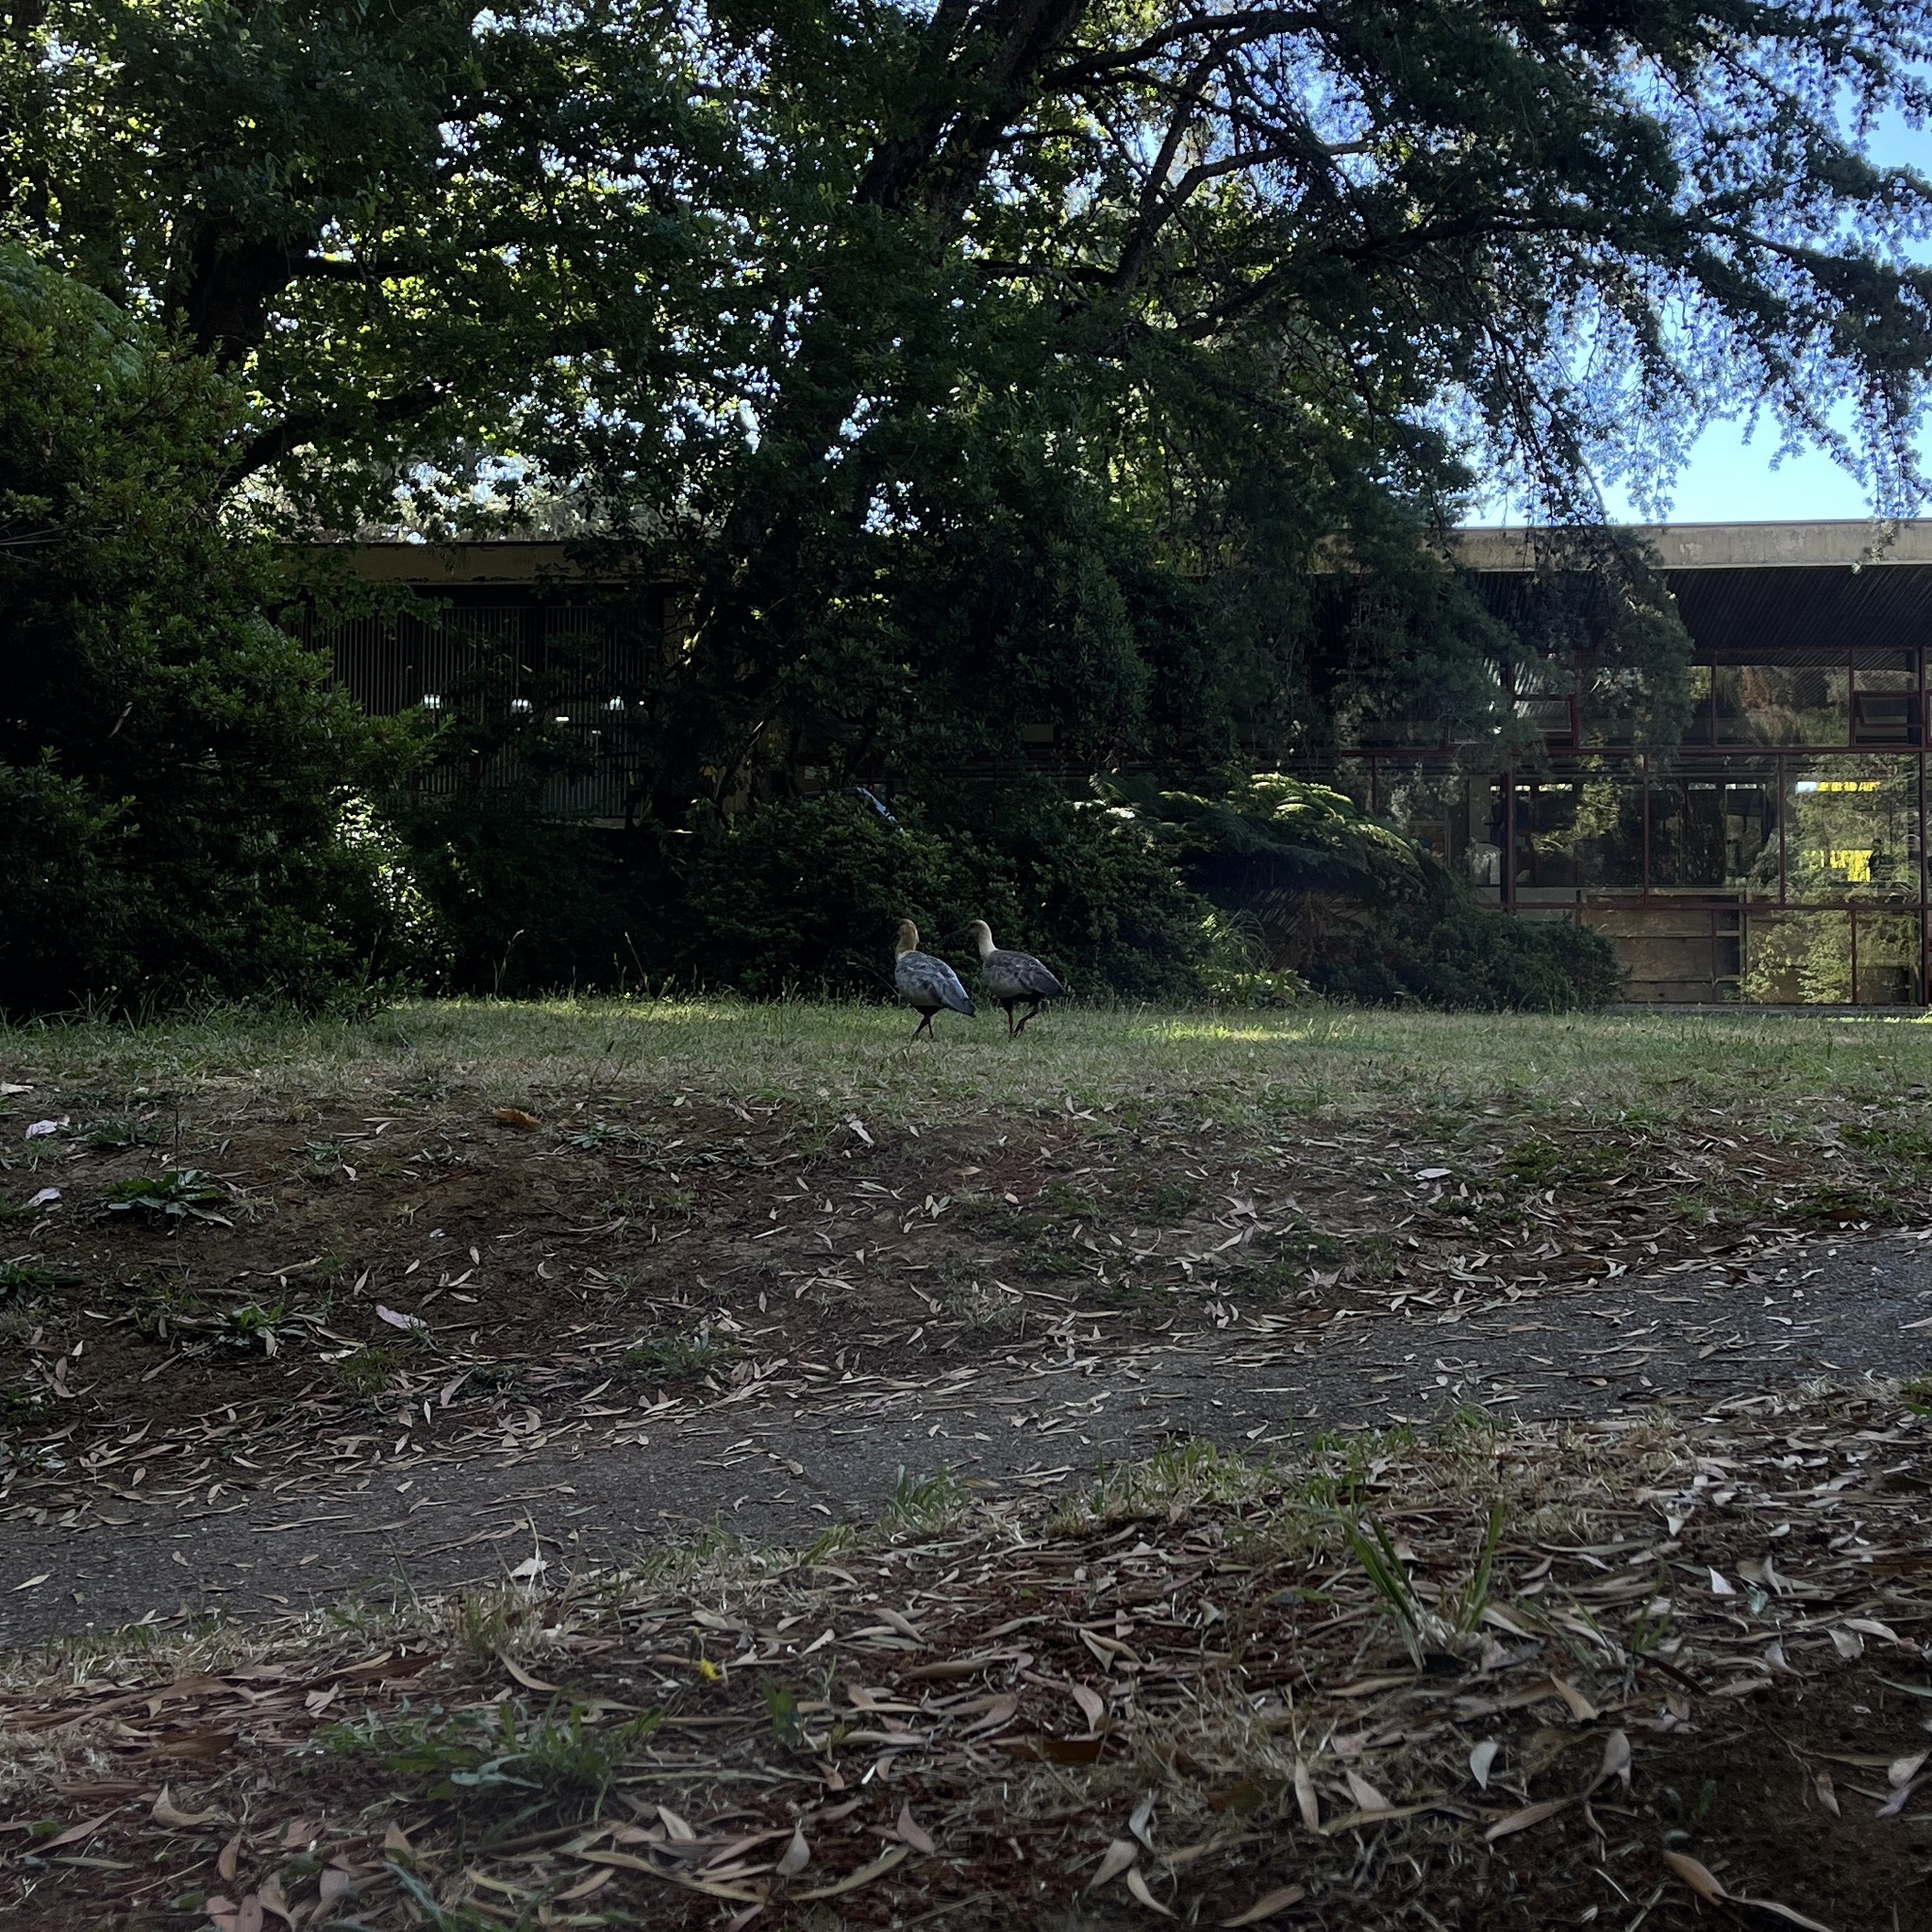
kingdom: Animalia
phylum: Chordata
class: Aves
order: Pelecaniformes
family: Threskiornithidae
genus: Theristicus
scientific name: Theristicus melanopis
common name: Black-faced ibis
